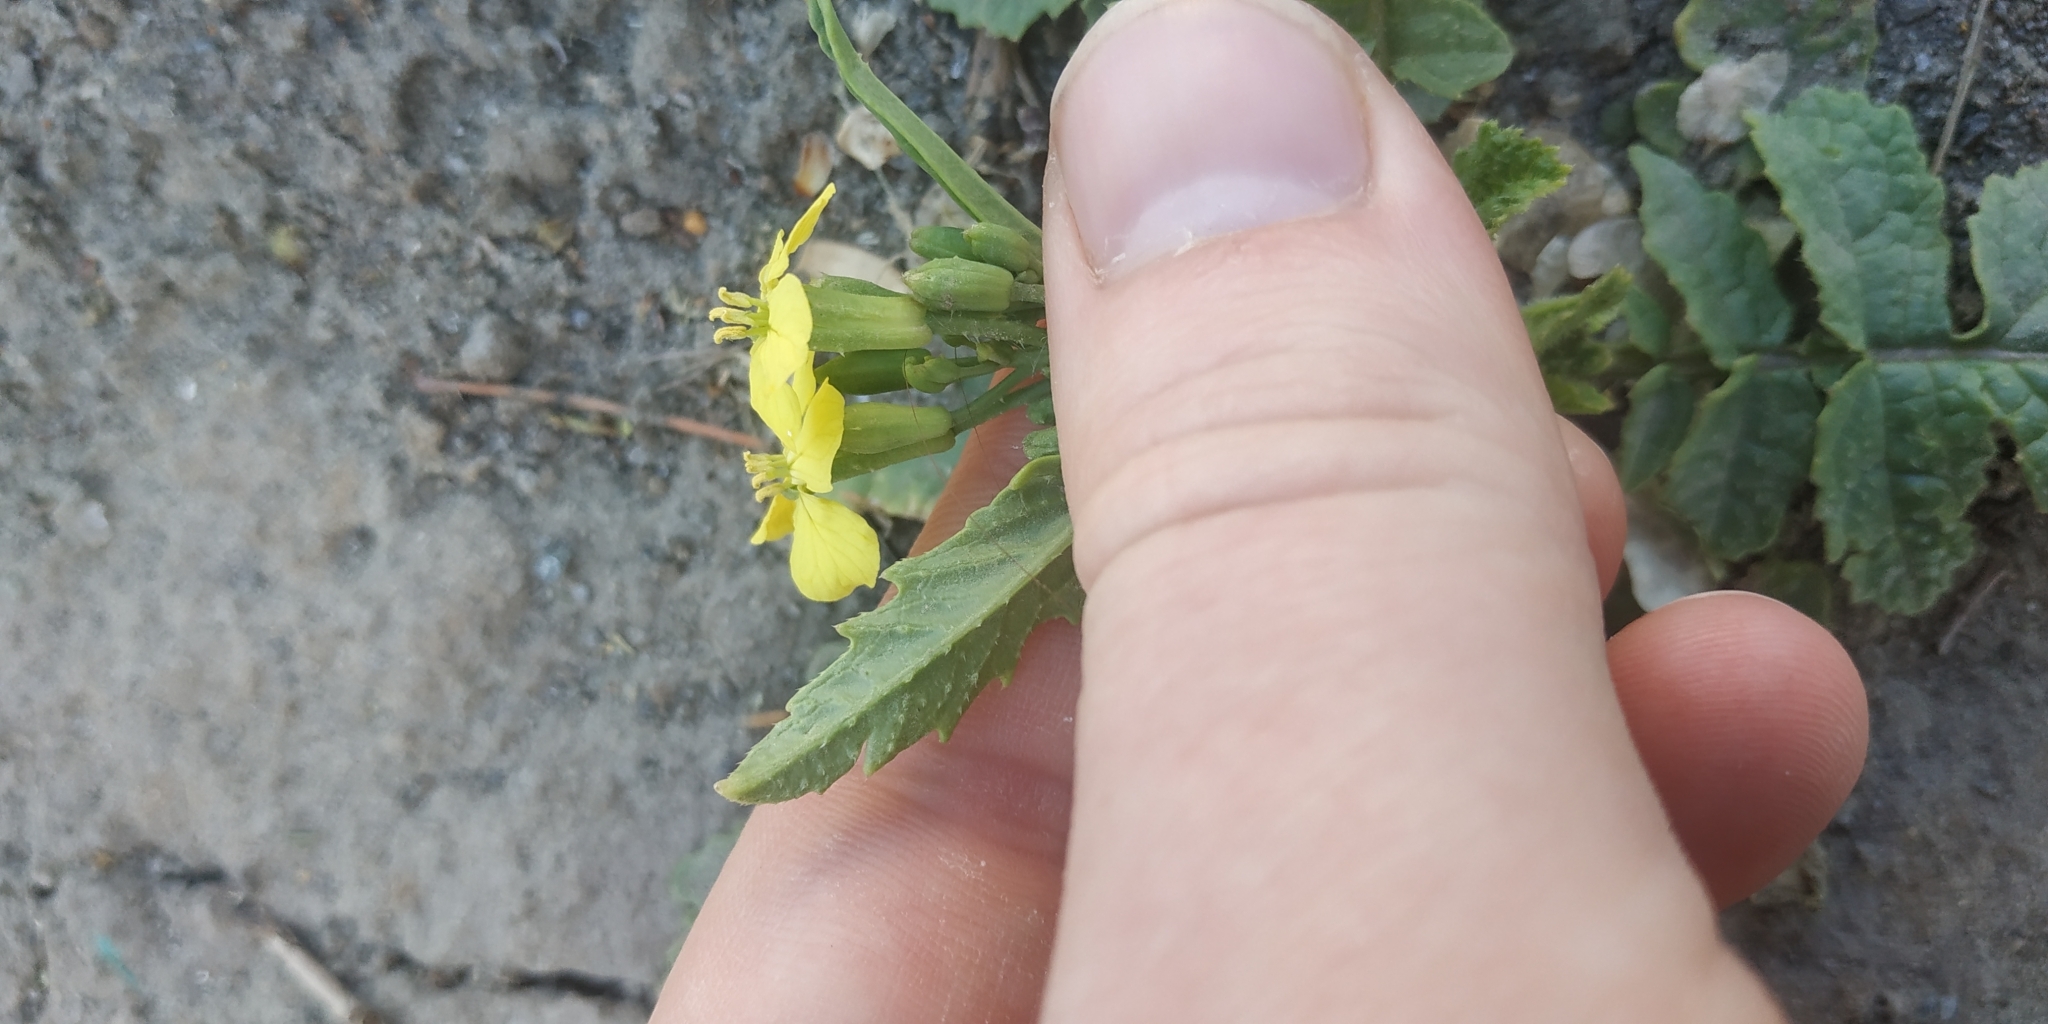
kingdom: Plantae
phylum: Tracheophyta
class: Magnoliopsida
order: Brassicales
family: Brassicaceae
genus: Raphanus
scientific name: Raphanus raphanistrum
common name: Wild radish
